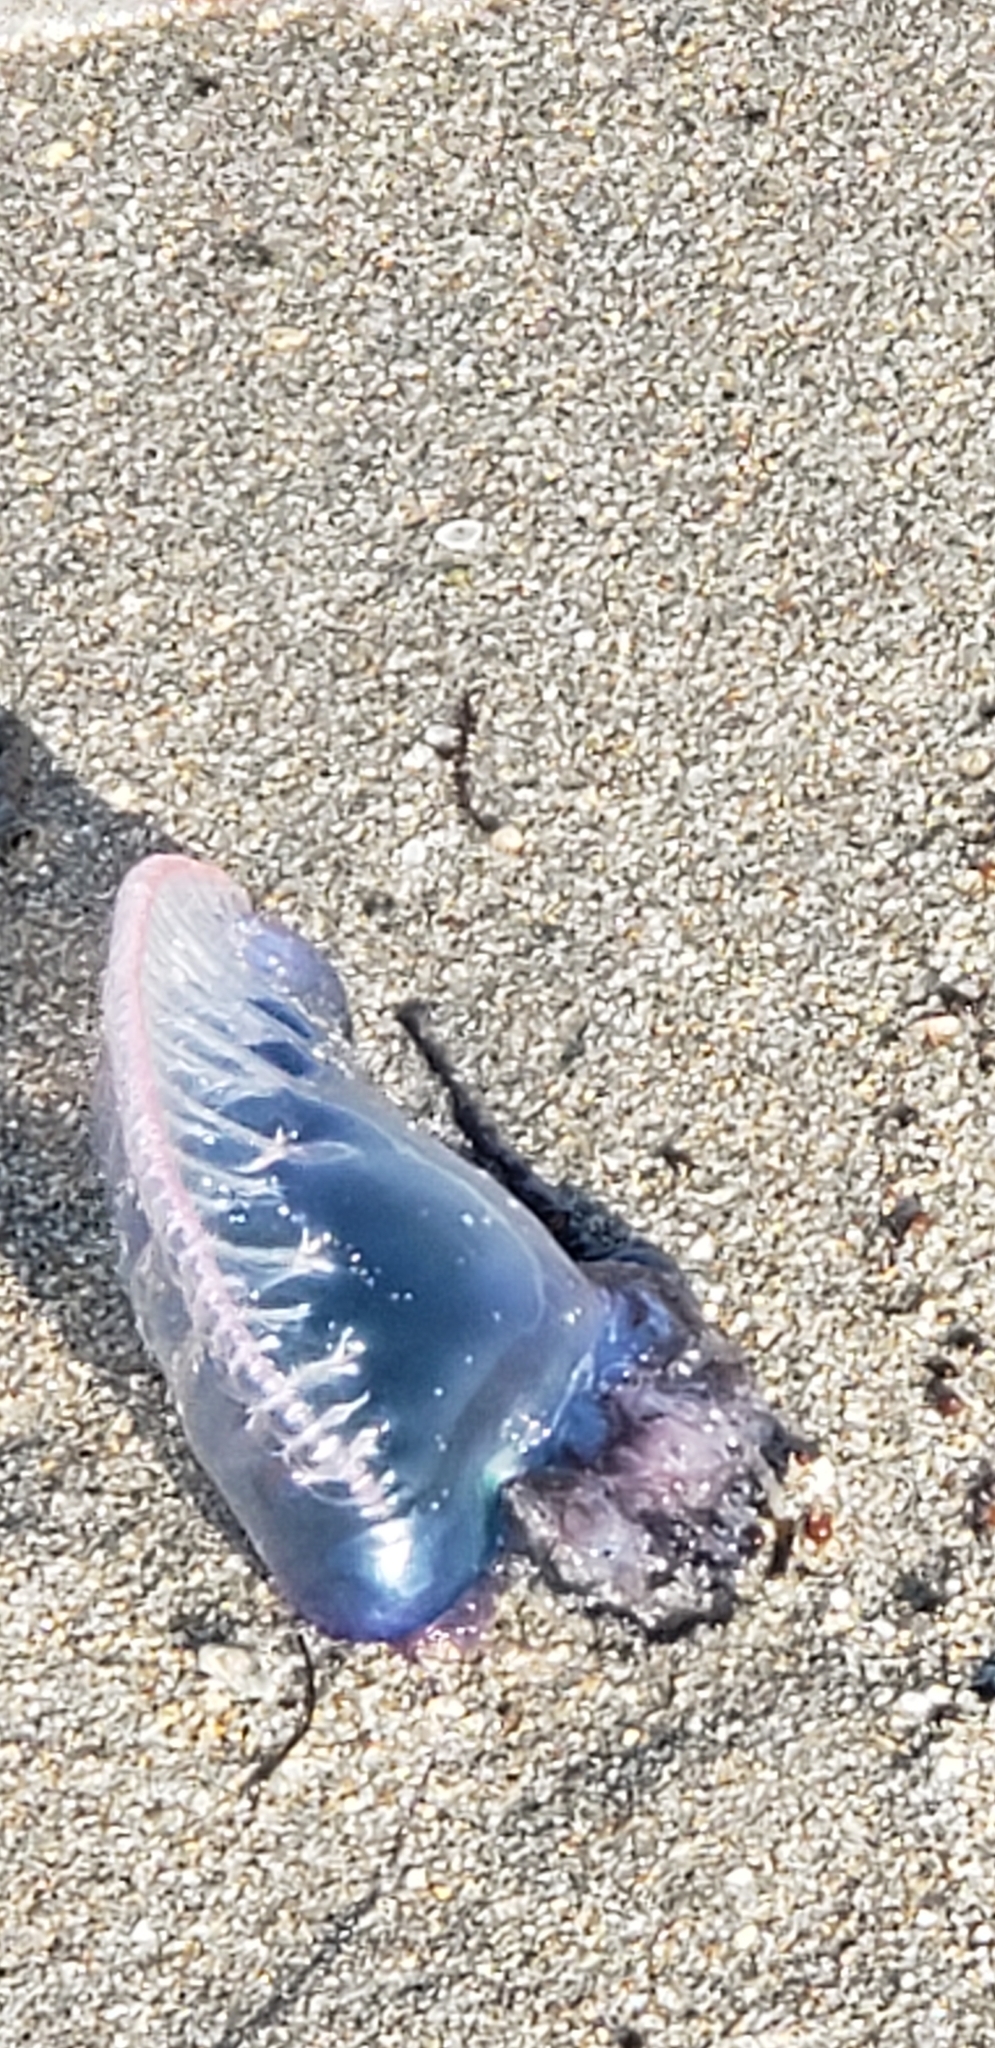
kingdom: Animalia
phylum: Cnidaria
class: Hydrozoa
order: Siphonophorae
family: Physaliidae
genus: Physalia
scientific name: Physalia physalis
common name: Portuguese man-of-war
